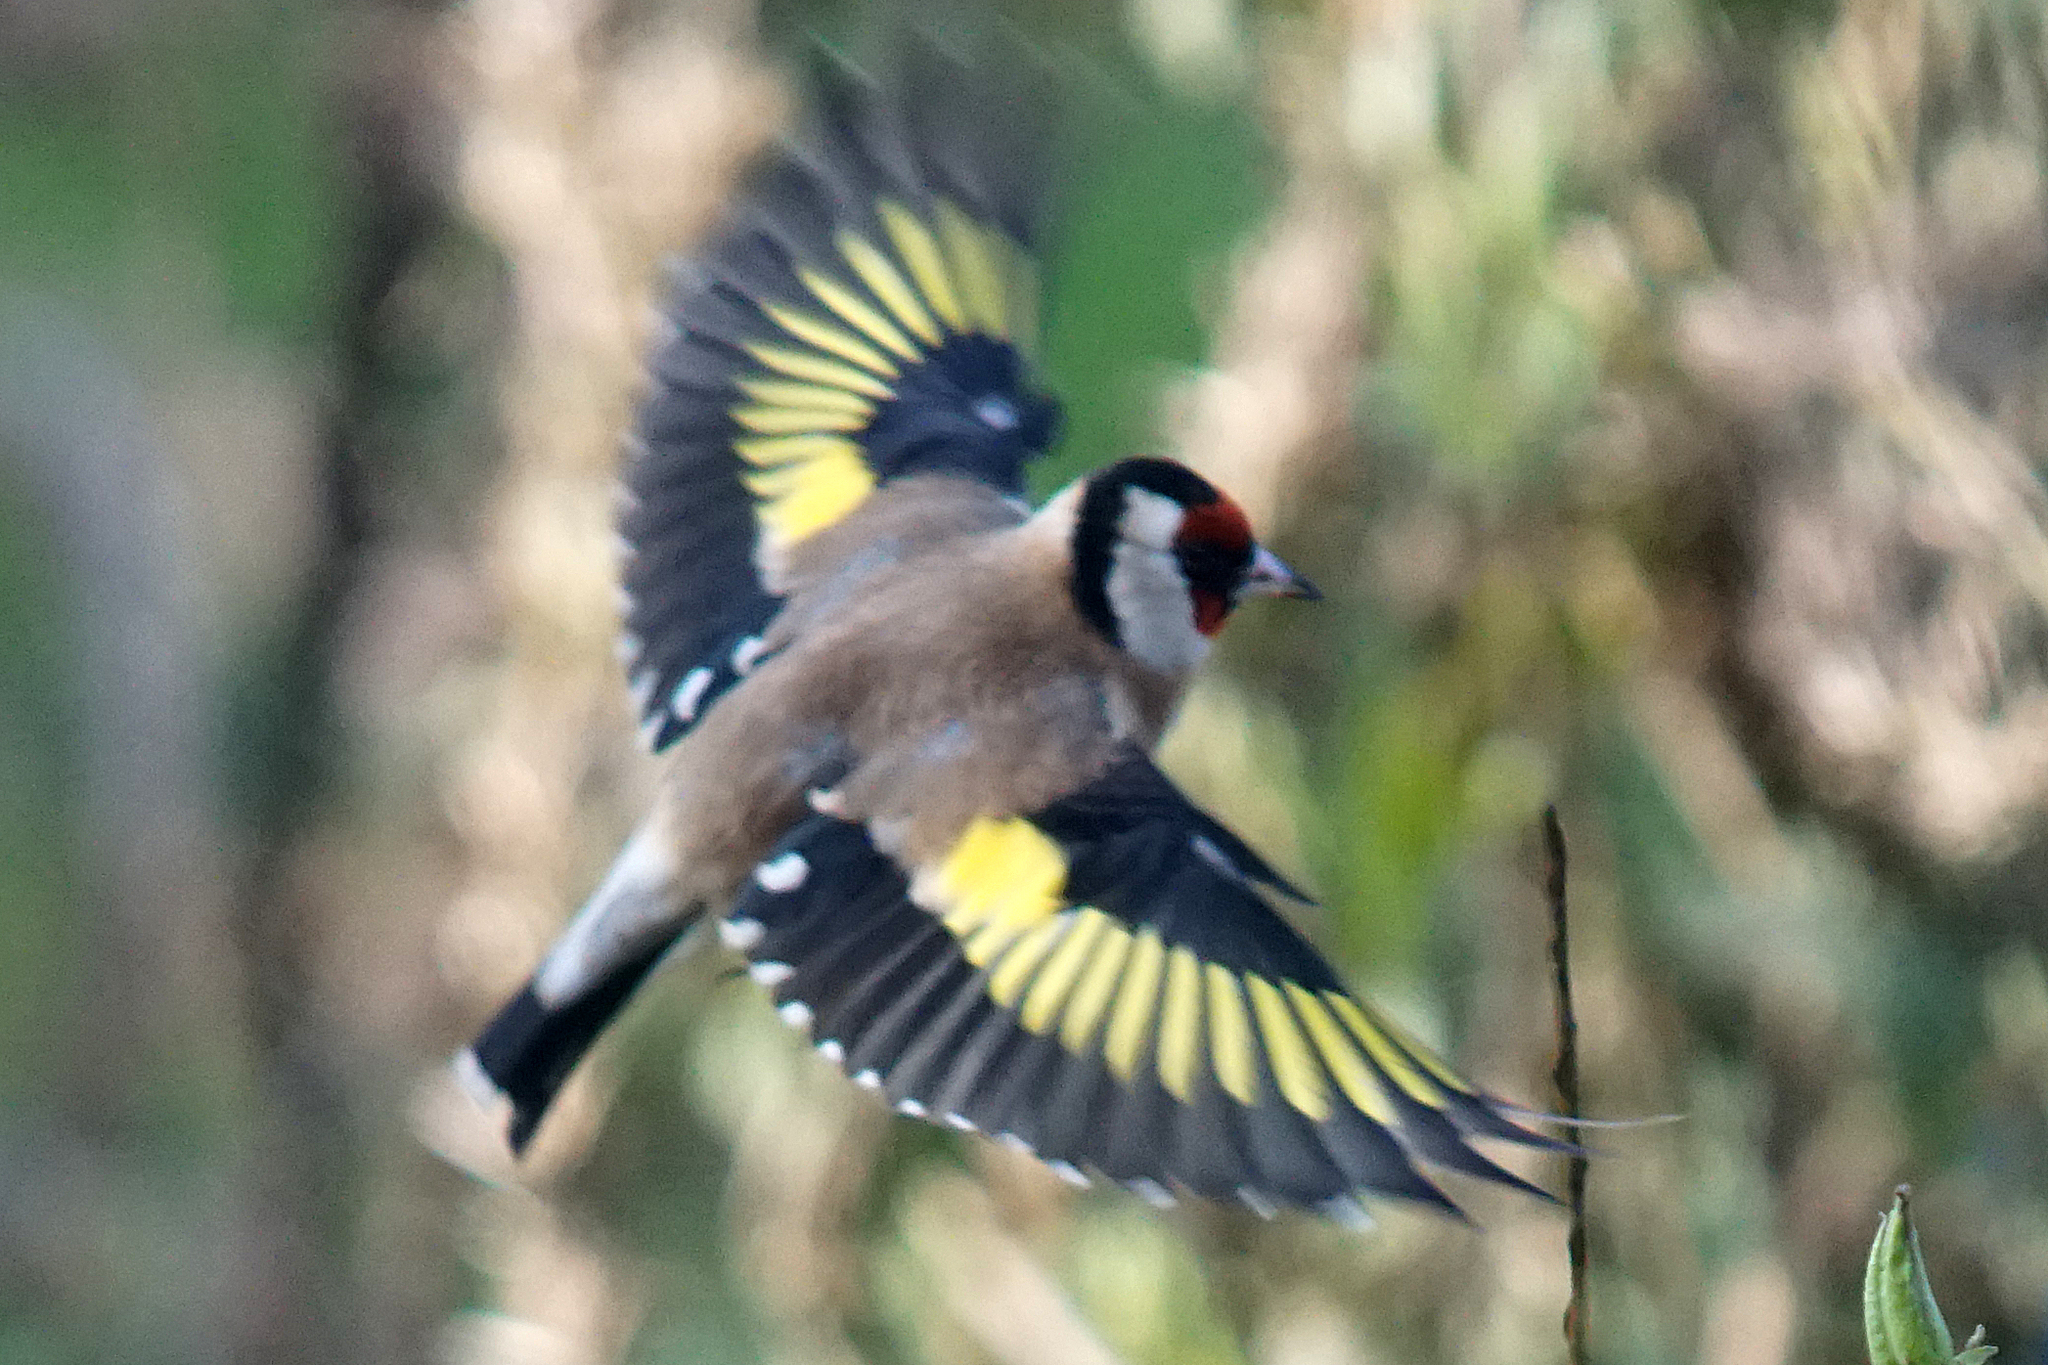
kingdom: Animalia
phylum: Chordata
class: Aves
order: Passeriformes
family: Fringillidae
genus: Carduelis
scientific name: Carduelis carduelis
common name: European goldfinch
